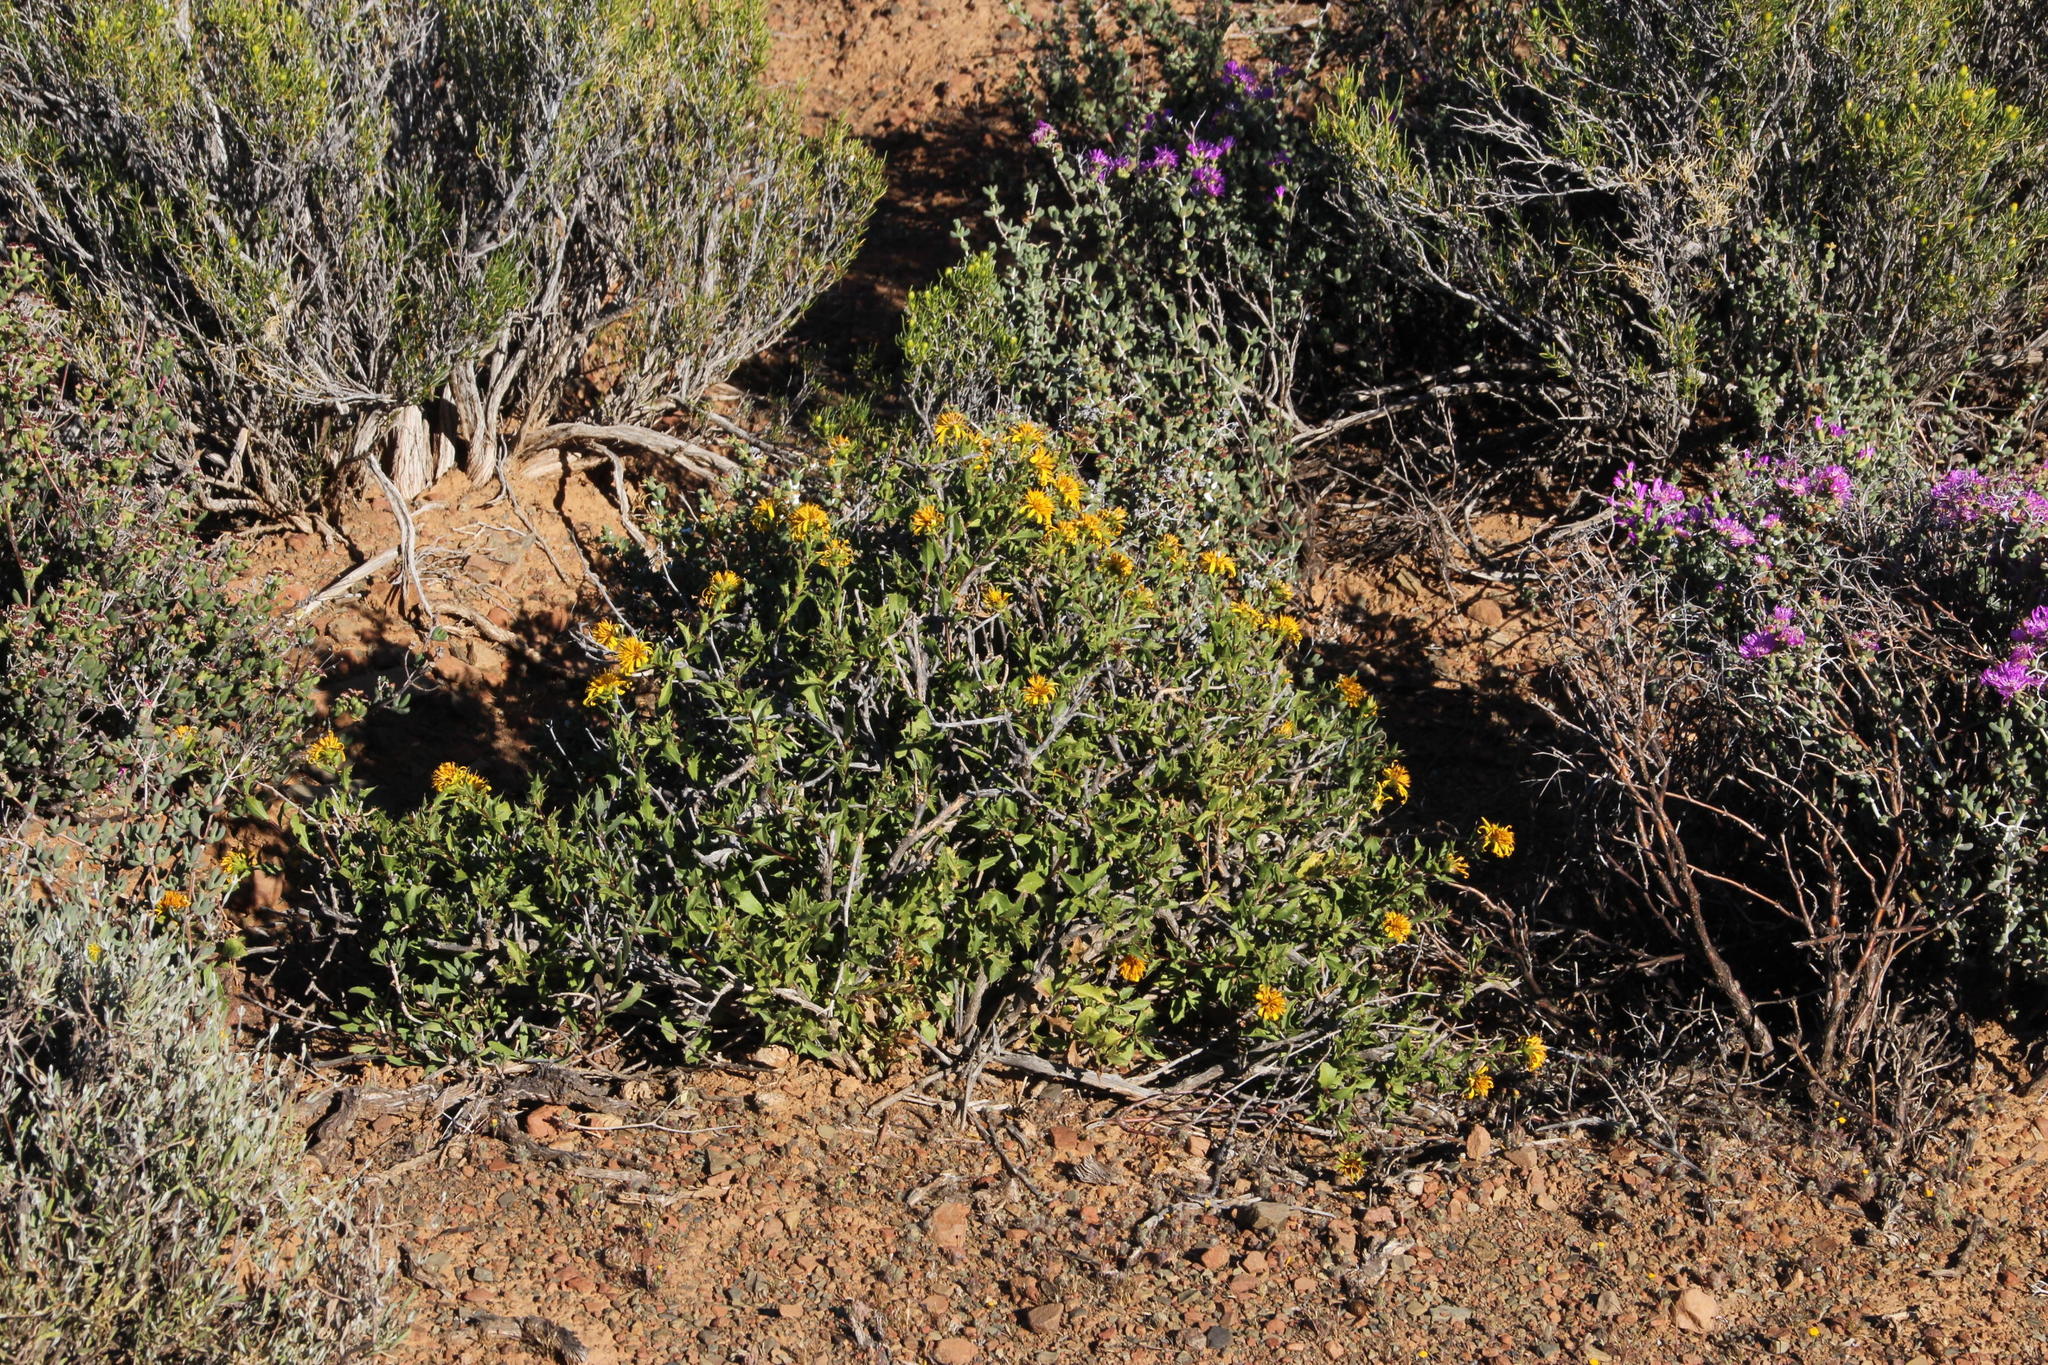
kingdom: Plantae
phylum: Tracheophyta
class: Magnoliopsida
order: Asterales
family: Asteraceae
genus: Berkheya
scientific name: Berkheya spinosa
